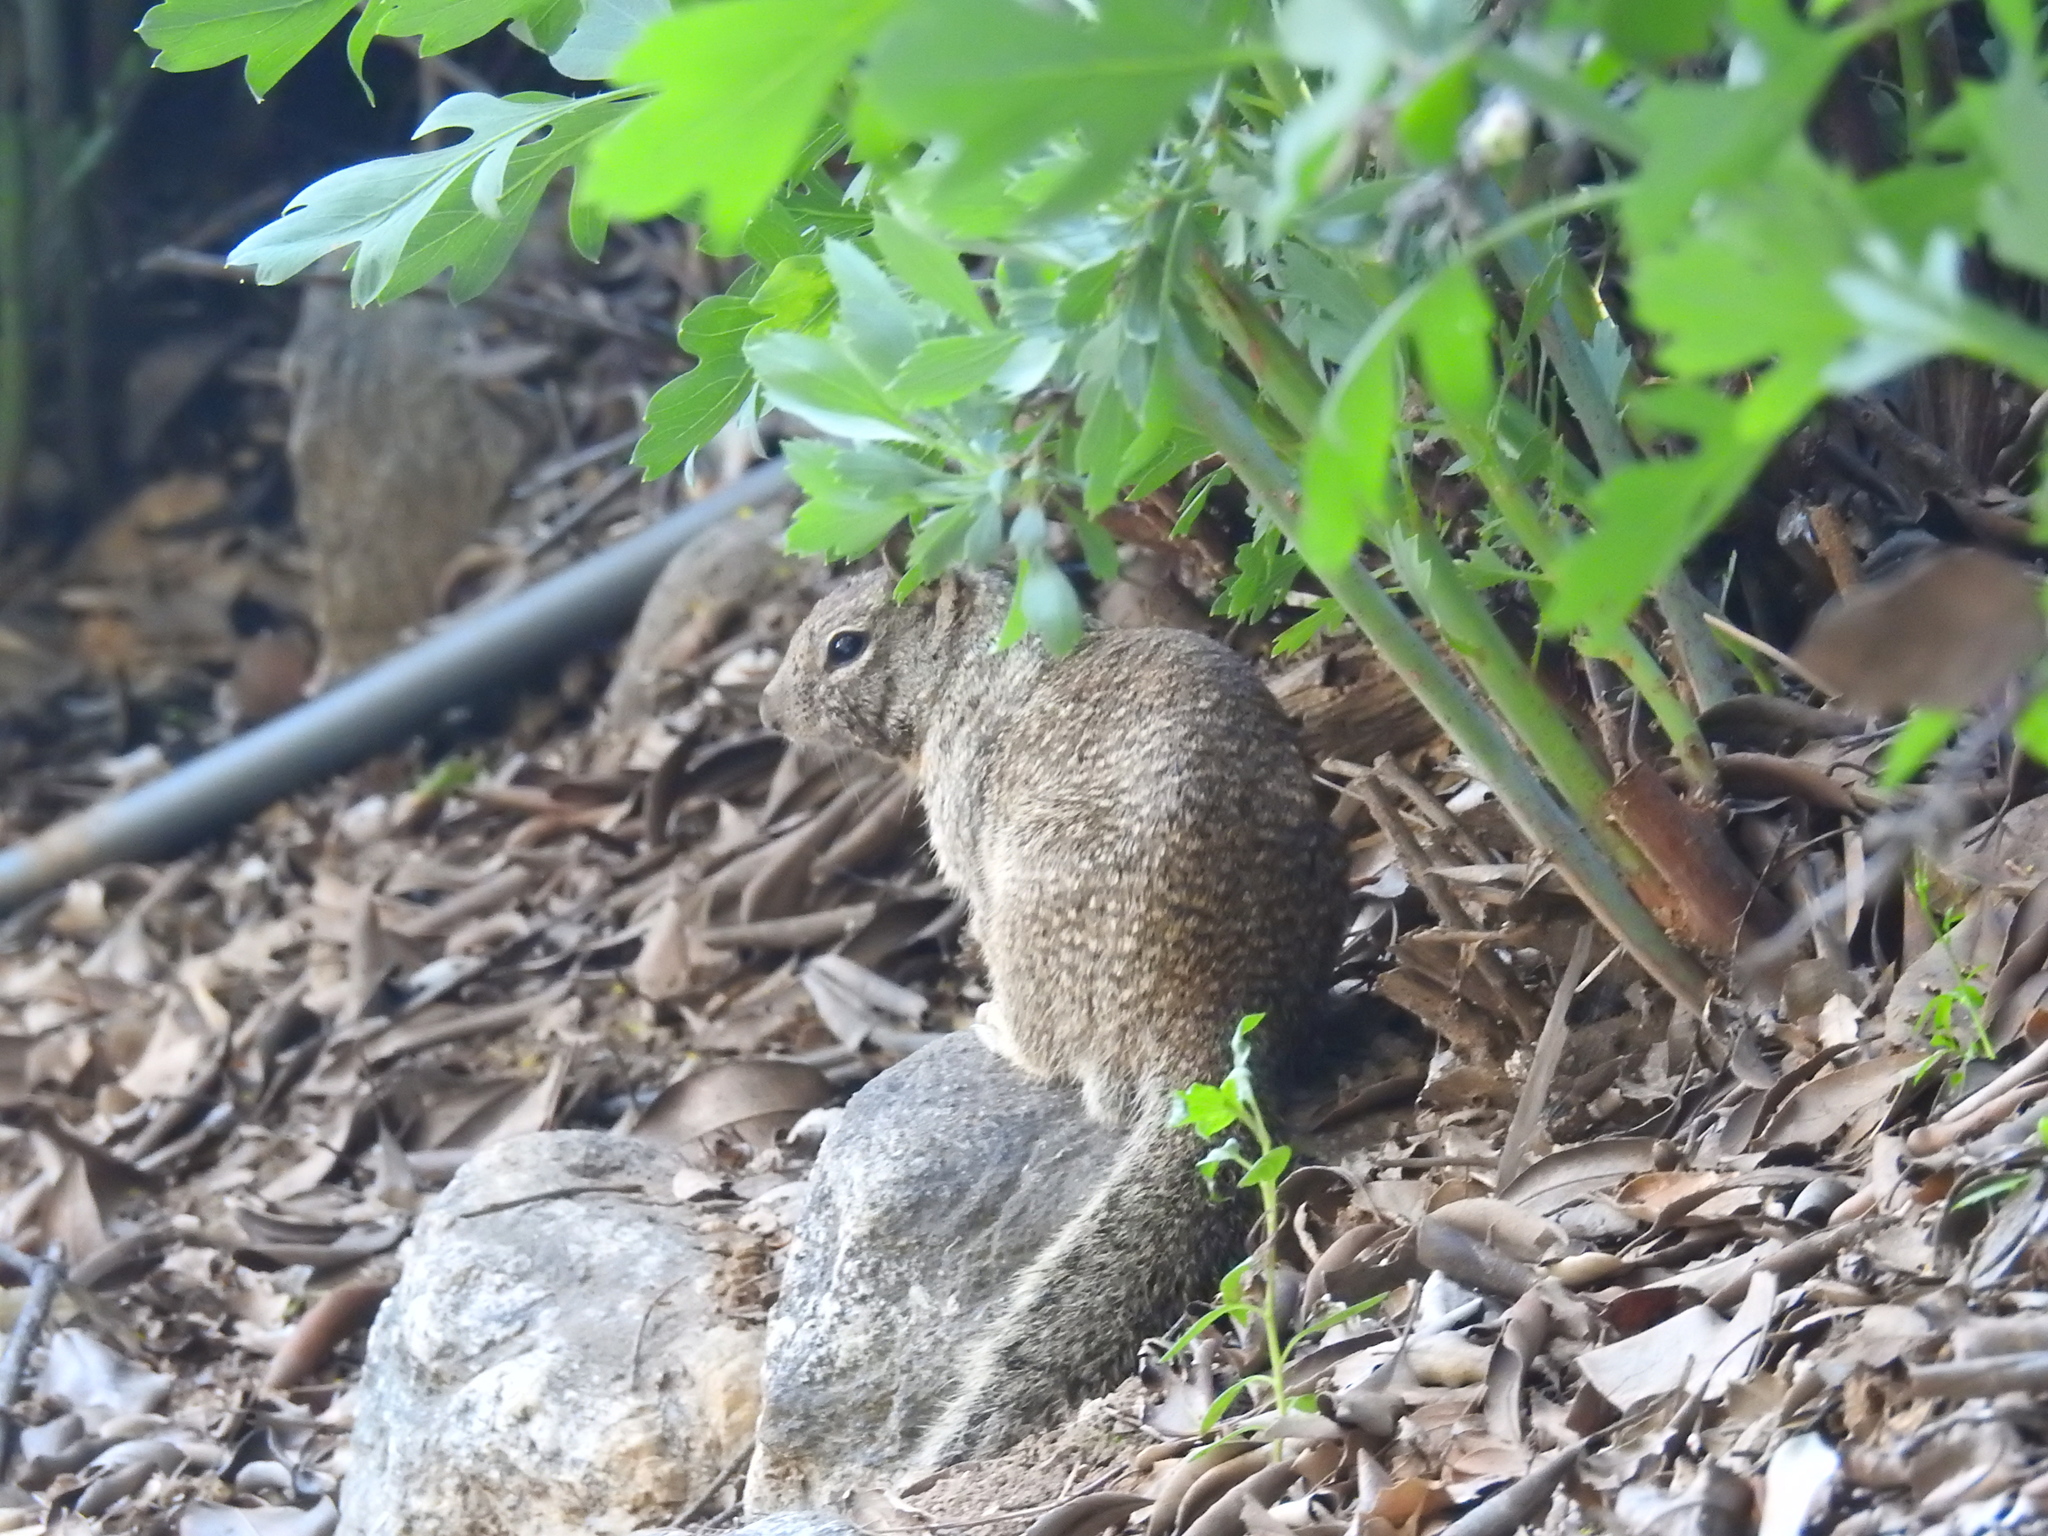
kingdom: Animalia
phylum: Chordata
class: Mammalia
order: Rodentia
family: Sciuridae
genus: Otospermophilus
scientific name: Otospermophilus beecheyi
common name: California ground squirrel
